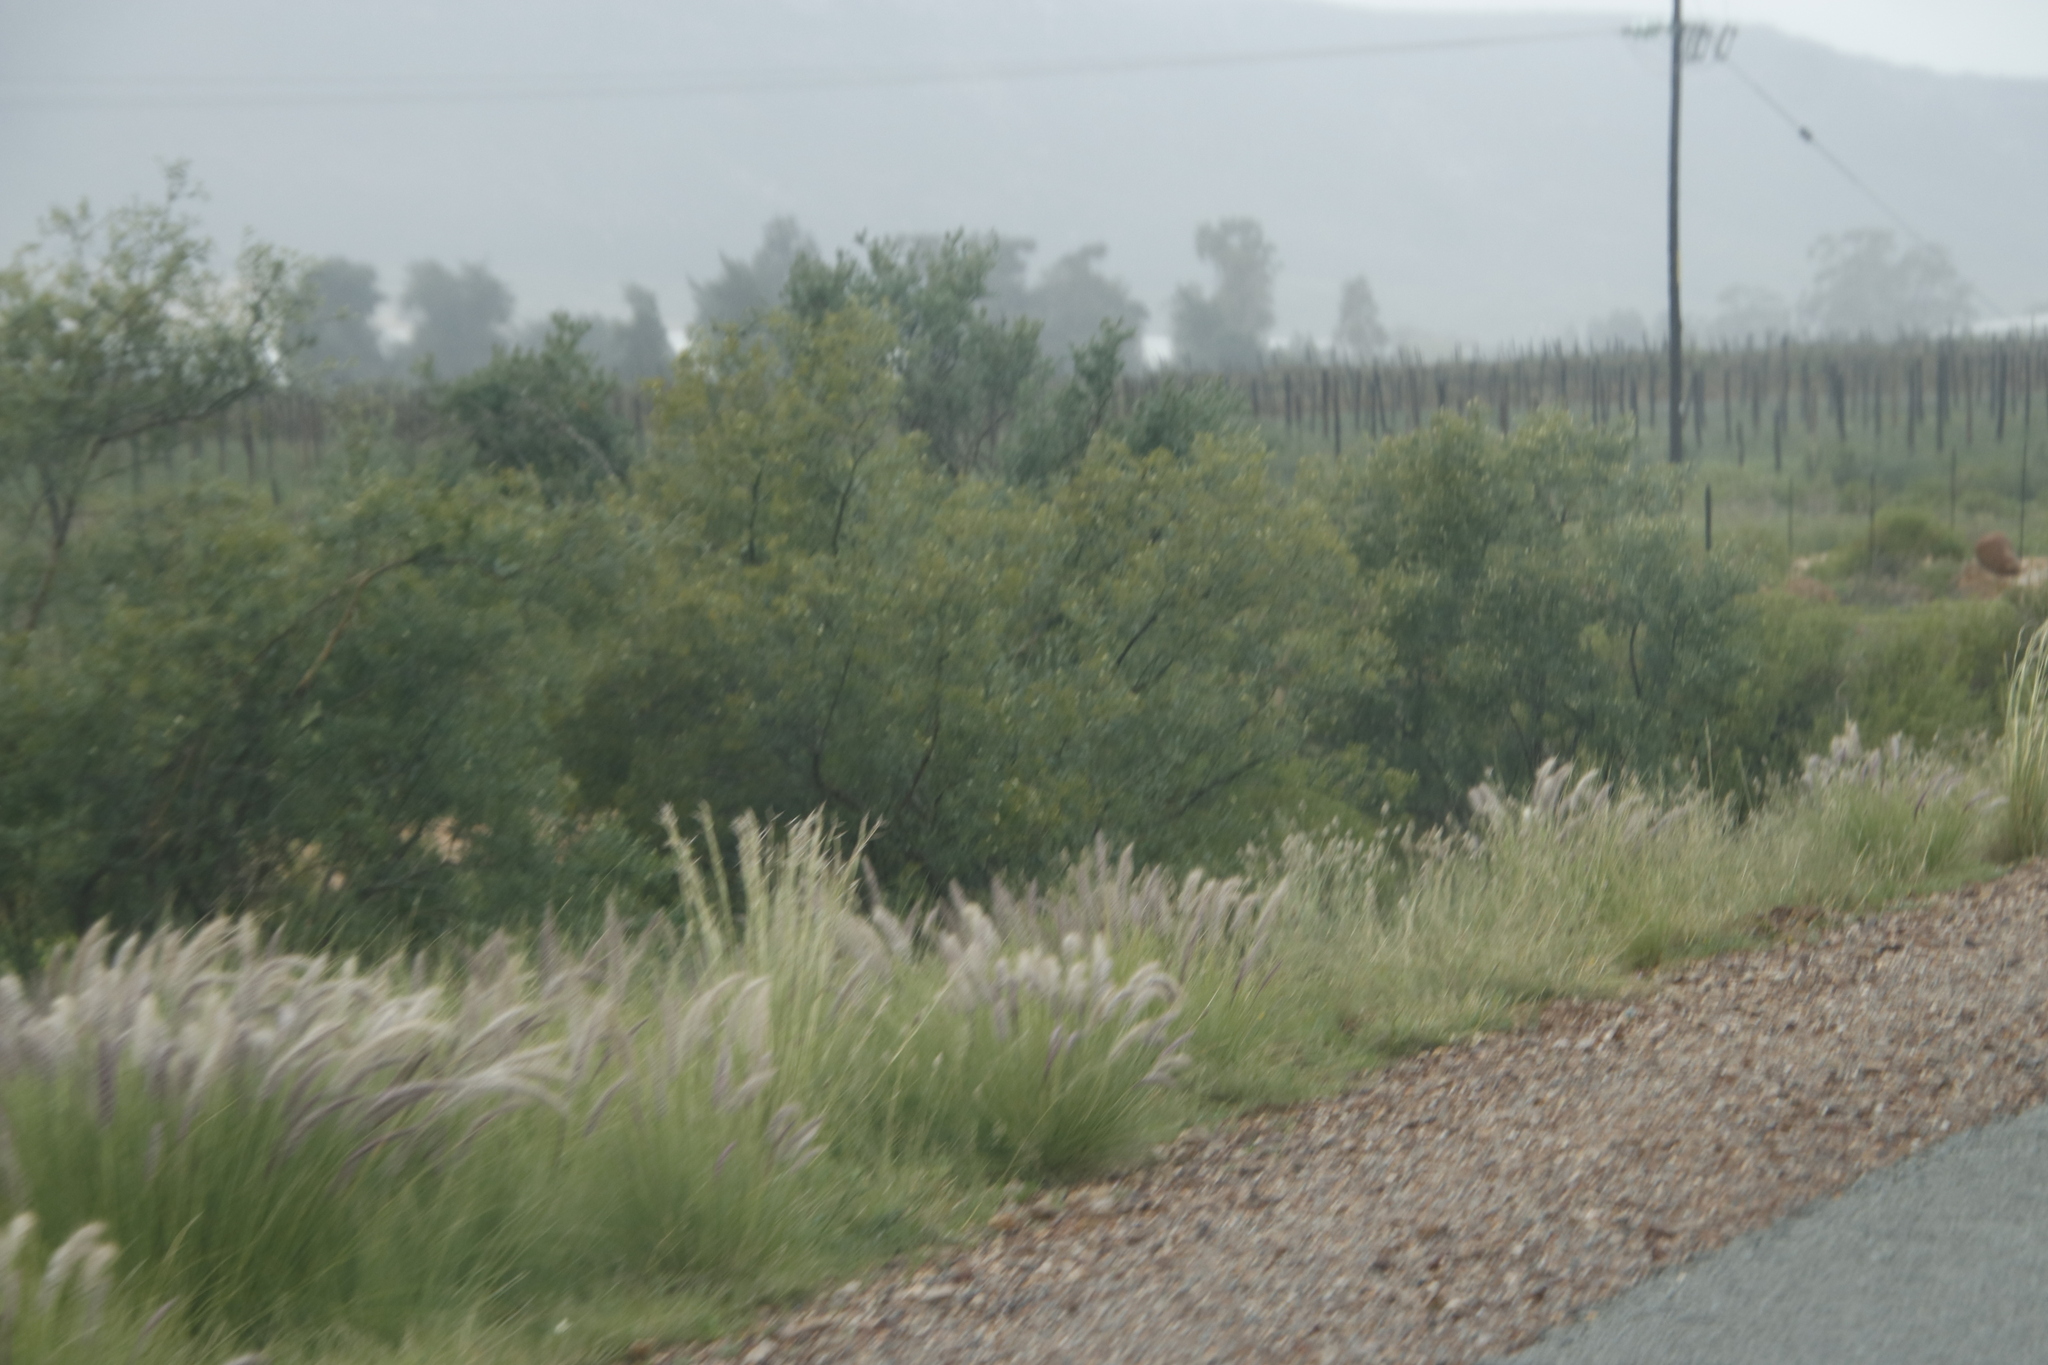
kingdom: Plantae
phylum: Tracheophyta
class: Liliopsida
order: Poales
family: Poaceae
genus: Cenchrus
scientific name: Cenchrus setaceus
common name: Crimson fountaingrass
